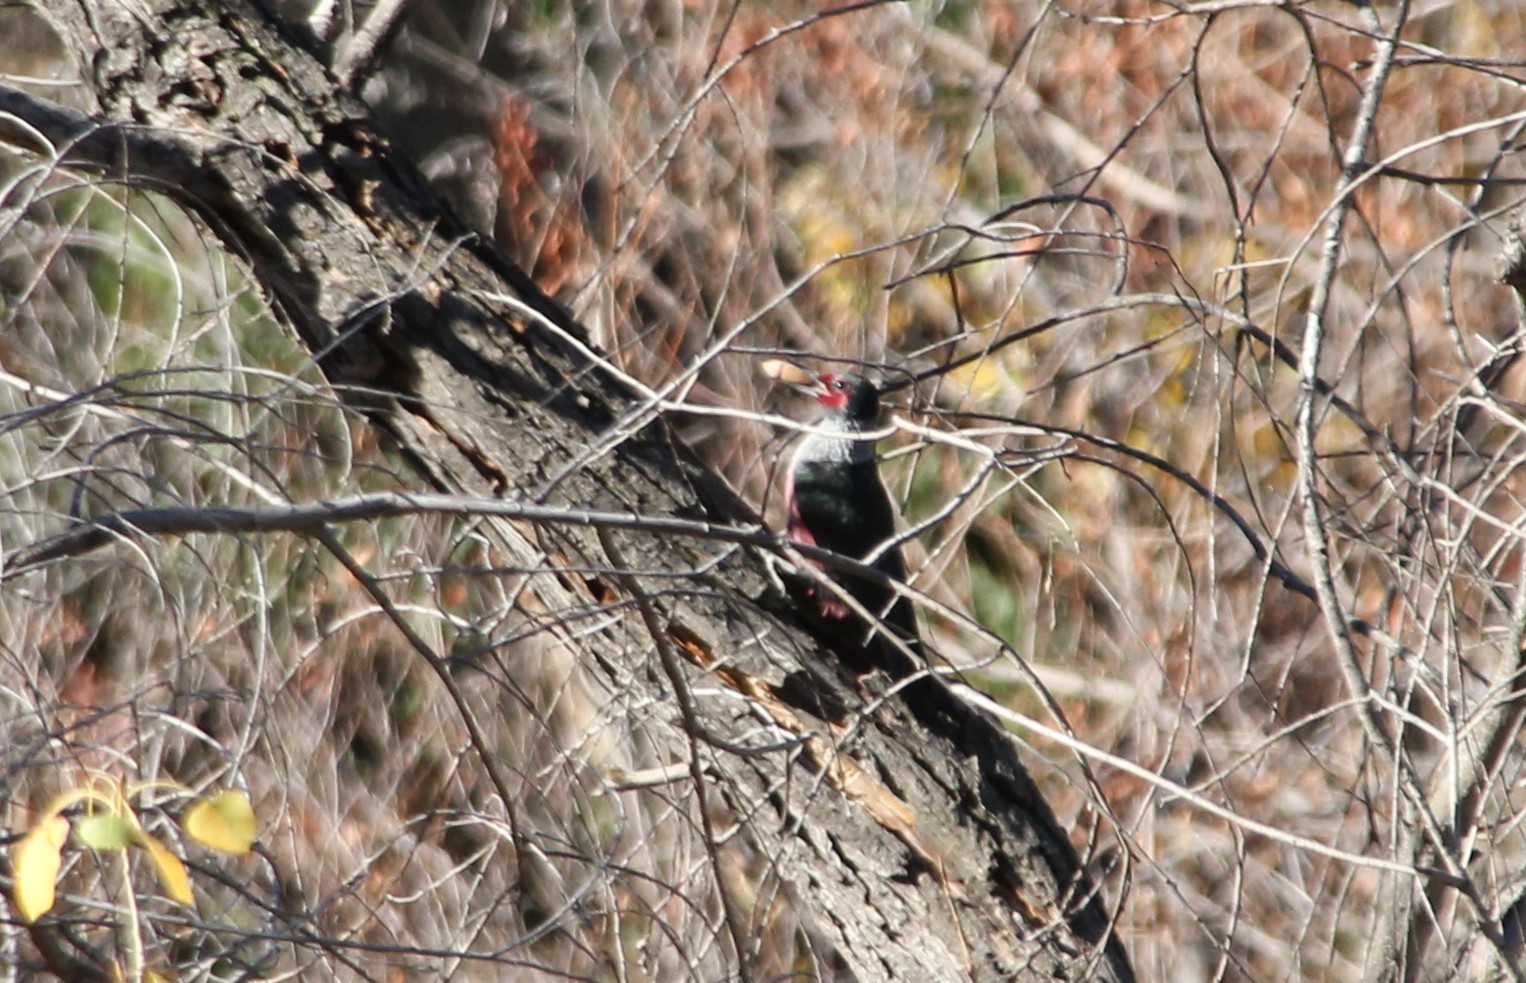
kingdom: Animalia
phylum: Chordata
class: Aves
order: Piciformes
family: Picidae
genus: Melanerpes
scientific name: Melanerpes lewis
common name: Lewis's woodpecker
